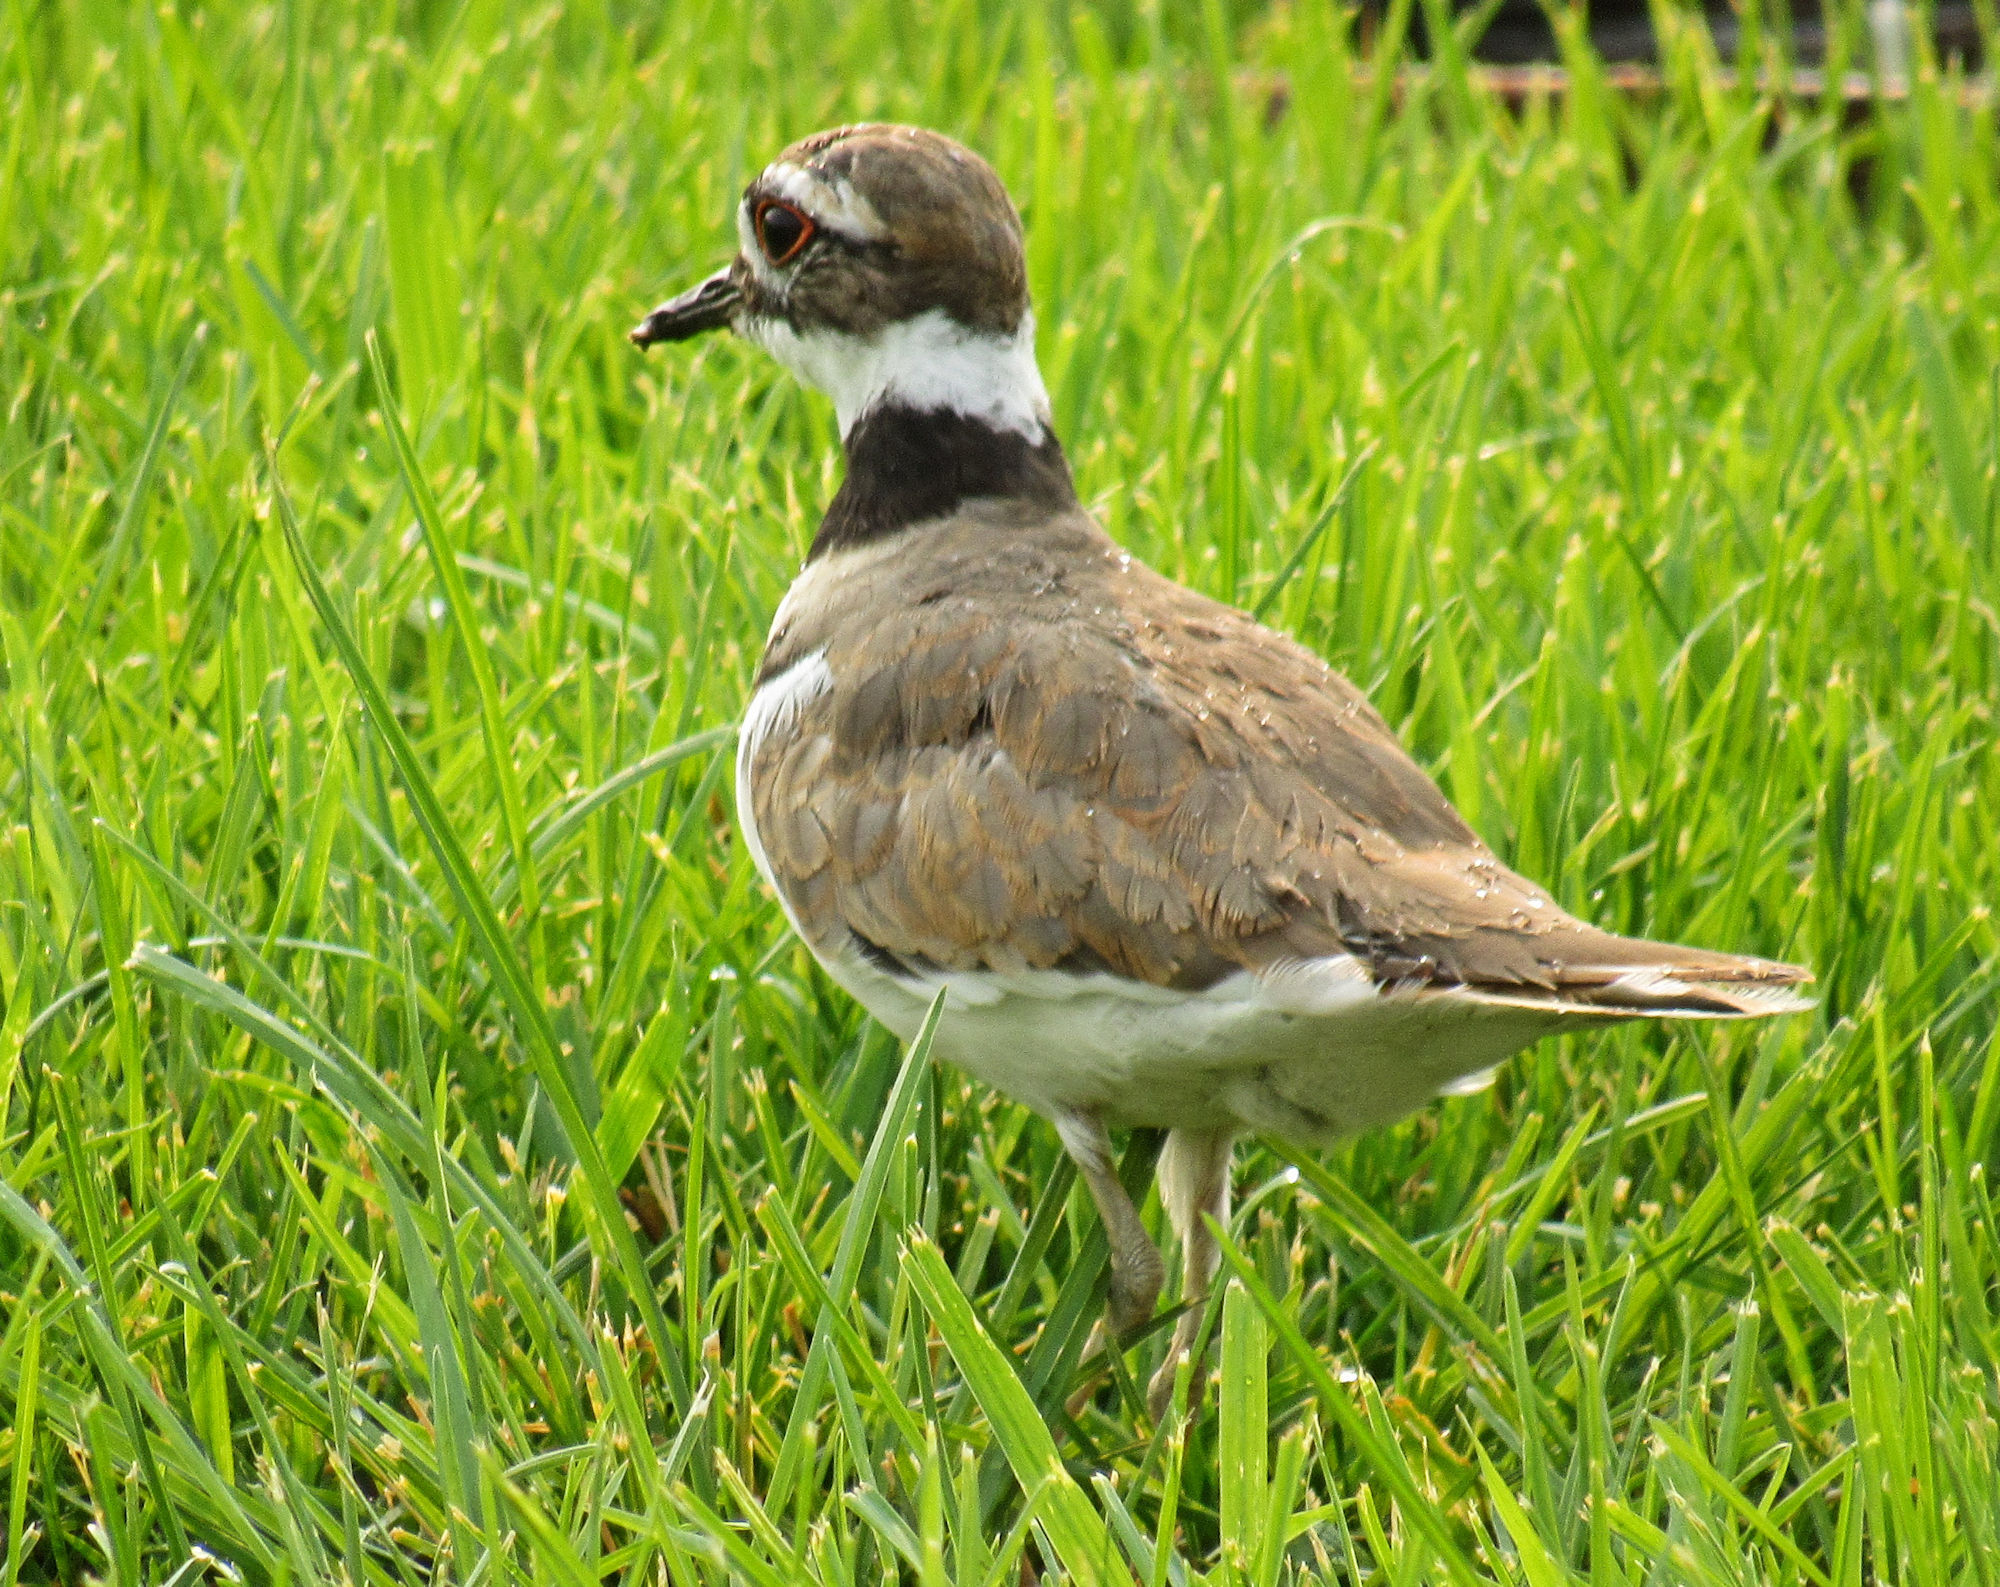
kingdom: Animalia
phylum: Chordata
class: Aves
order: Charadriiformes
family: Charadriidae
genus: Charadrius
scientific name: Charadrius vociferus
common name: Killdeer
